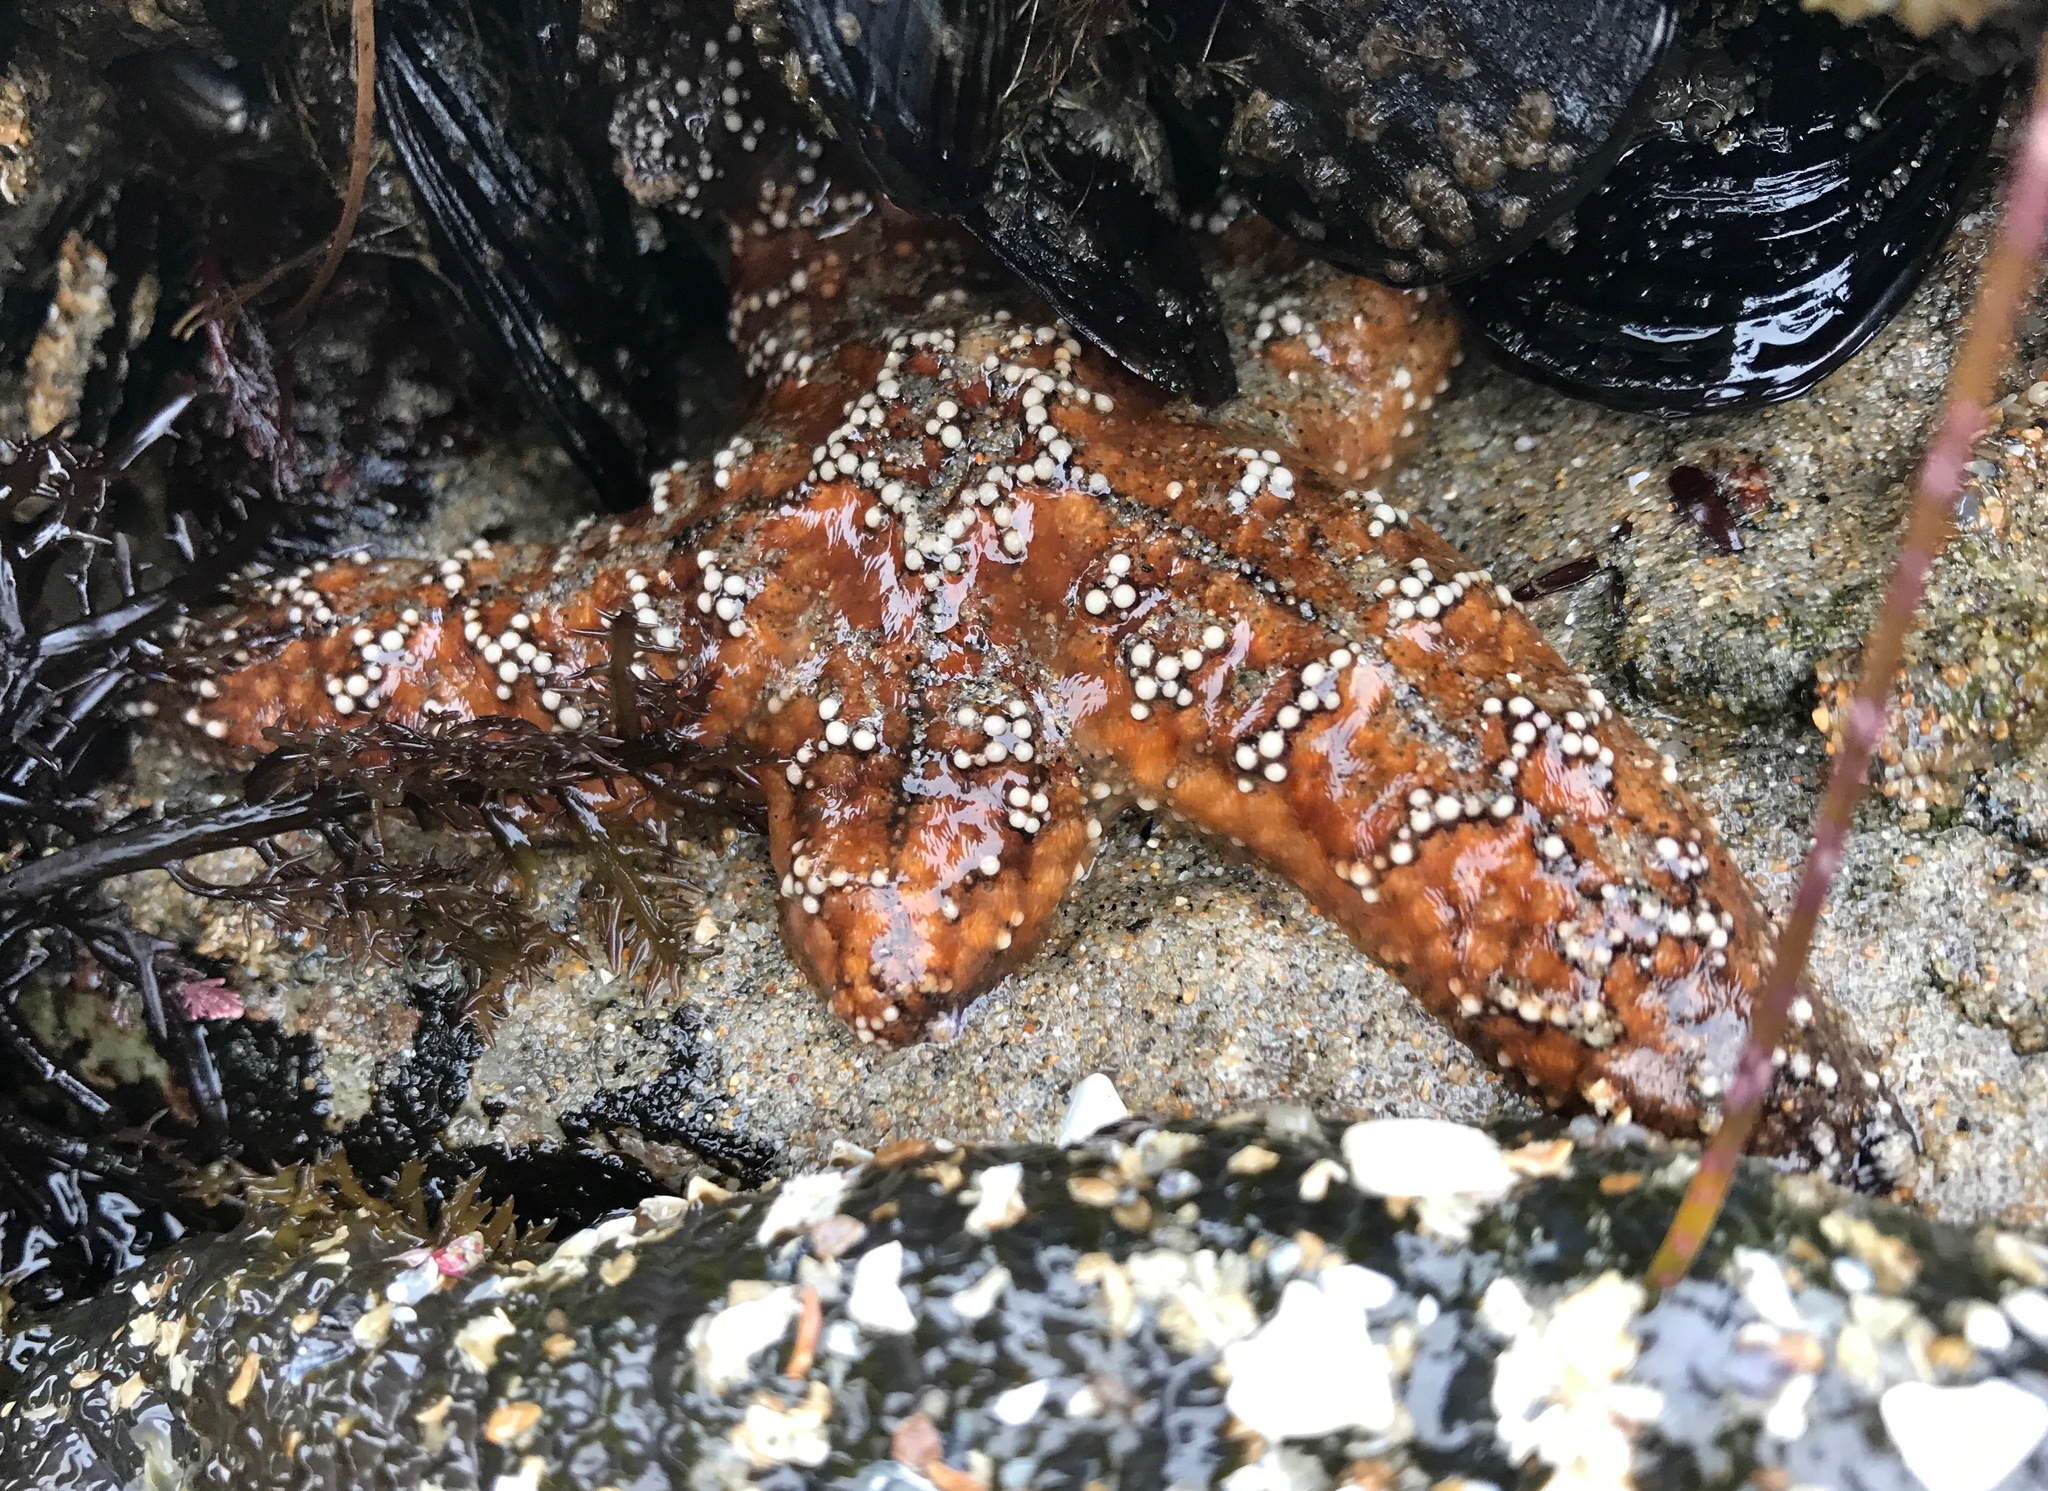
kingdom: Animalia
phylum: Echinodermata
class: Asteroidea
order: Forcipulatida
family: Asteriidae
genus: Pisaster
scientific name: Pisaster ochraceus
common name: Ochre stars
